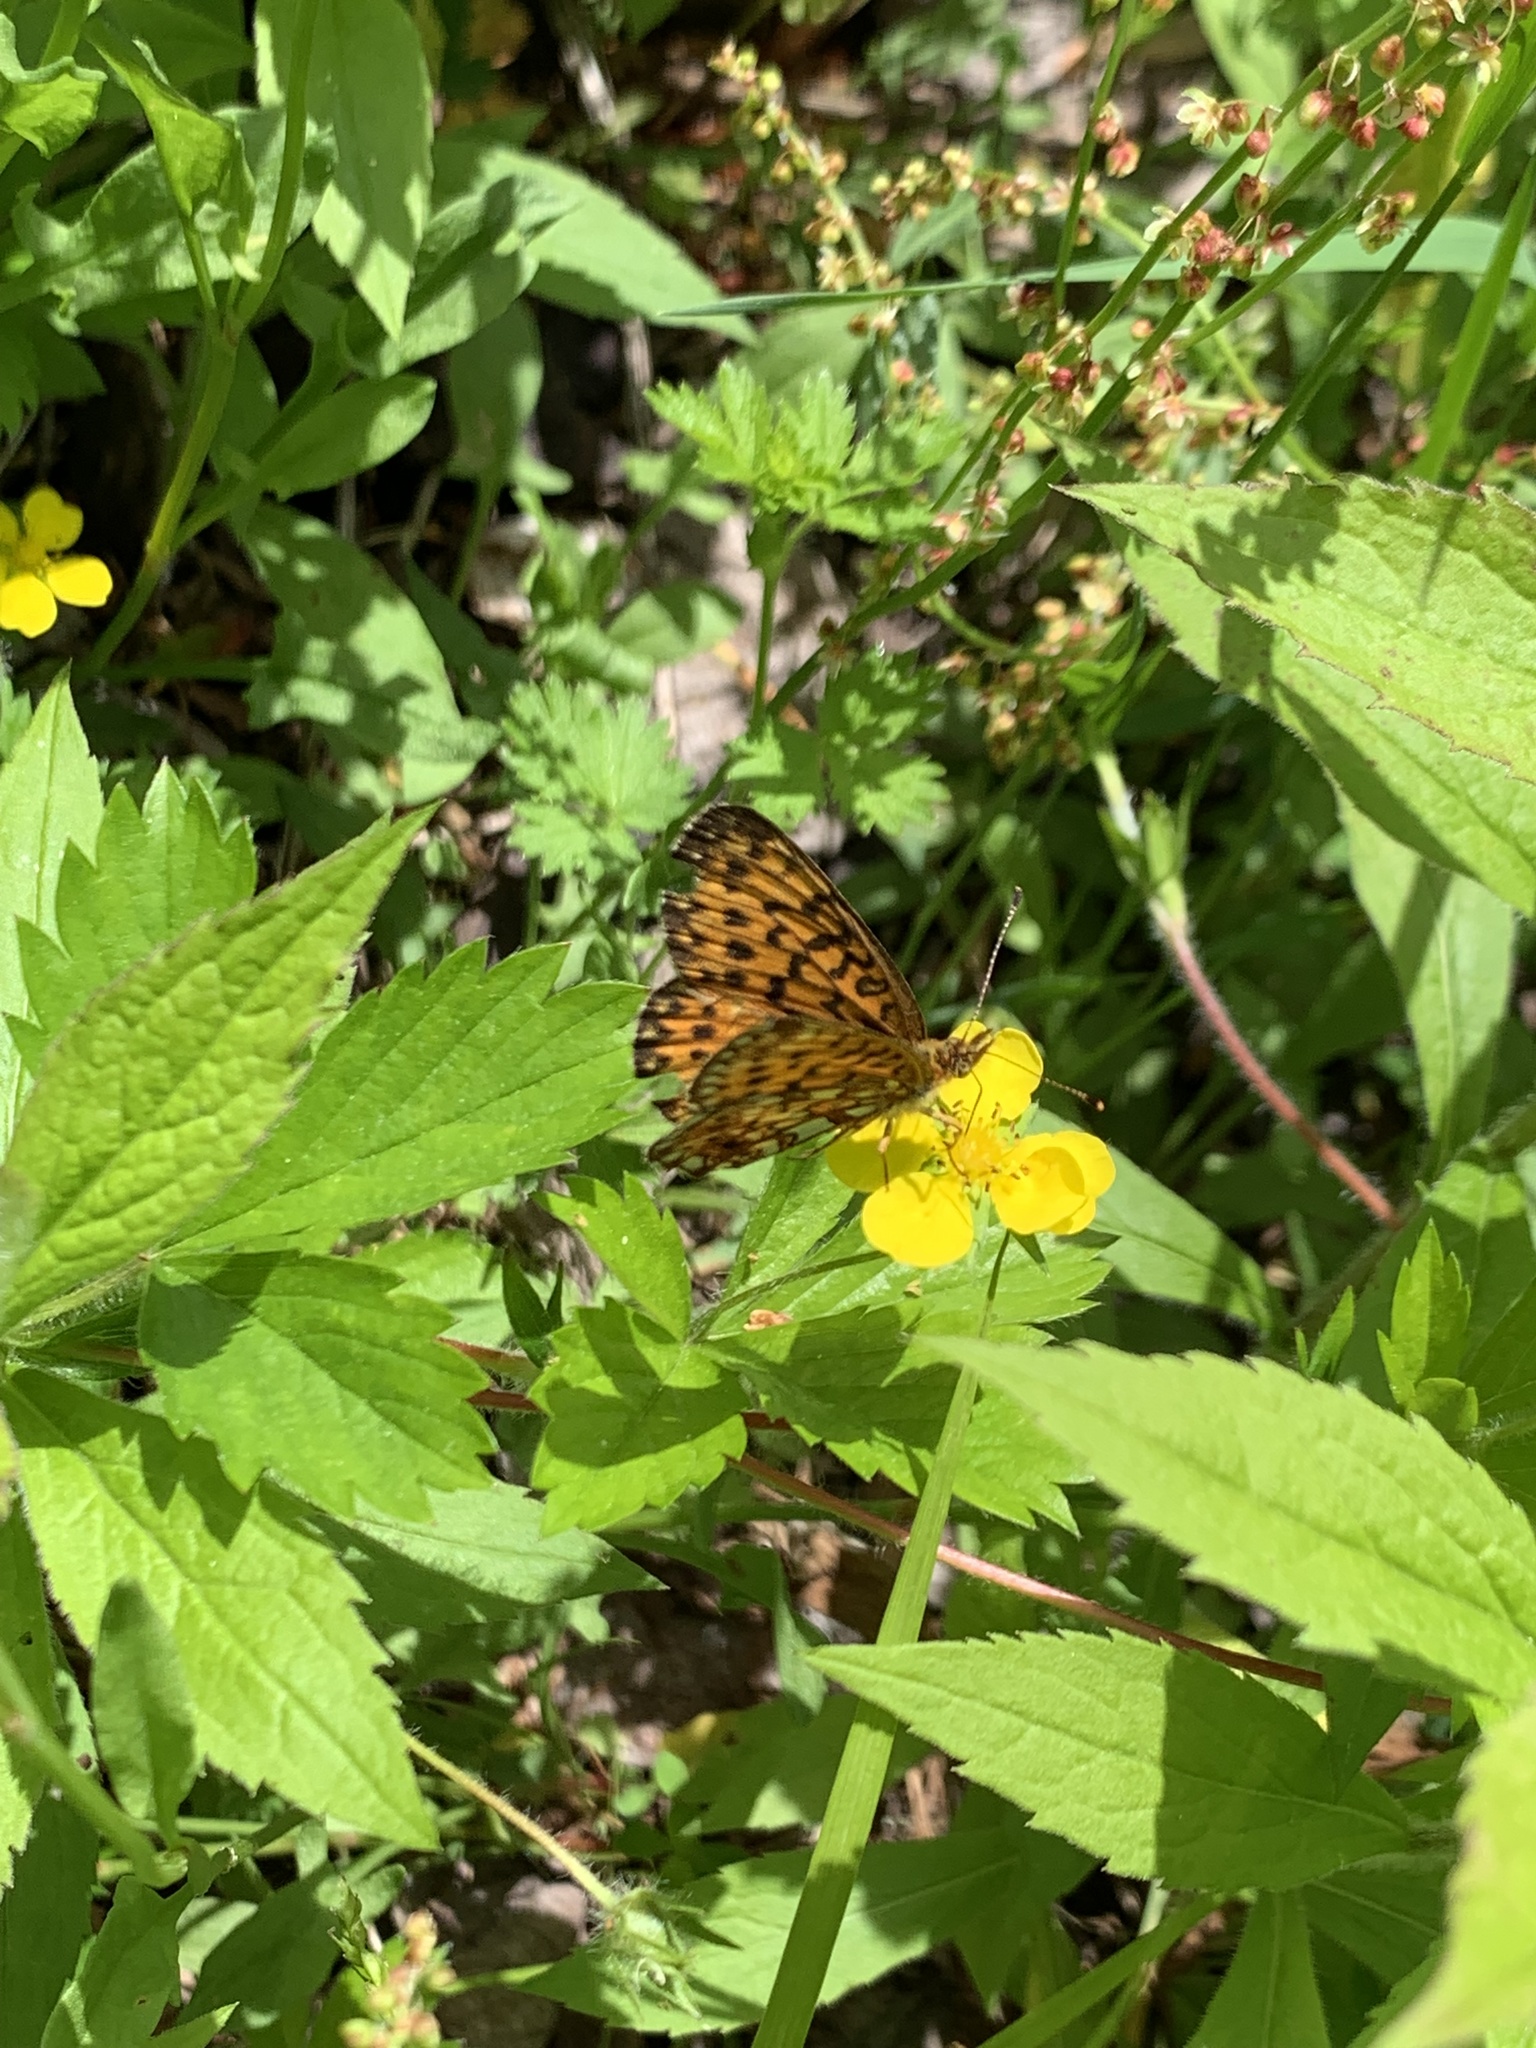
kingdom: Animalia
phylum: Arthropoda
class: Insecta
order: Lepidoptera
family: Nymphalidae
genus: Boloria
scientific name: Boloria
